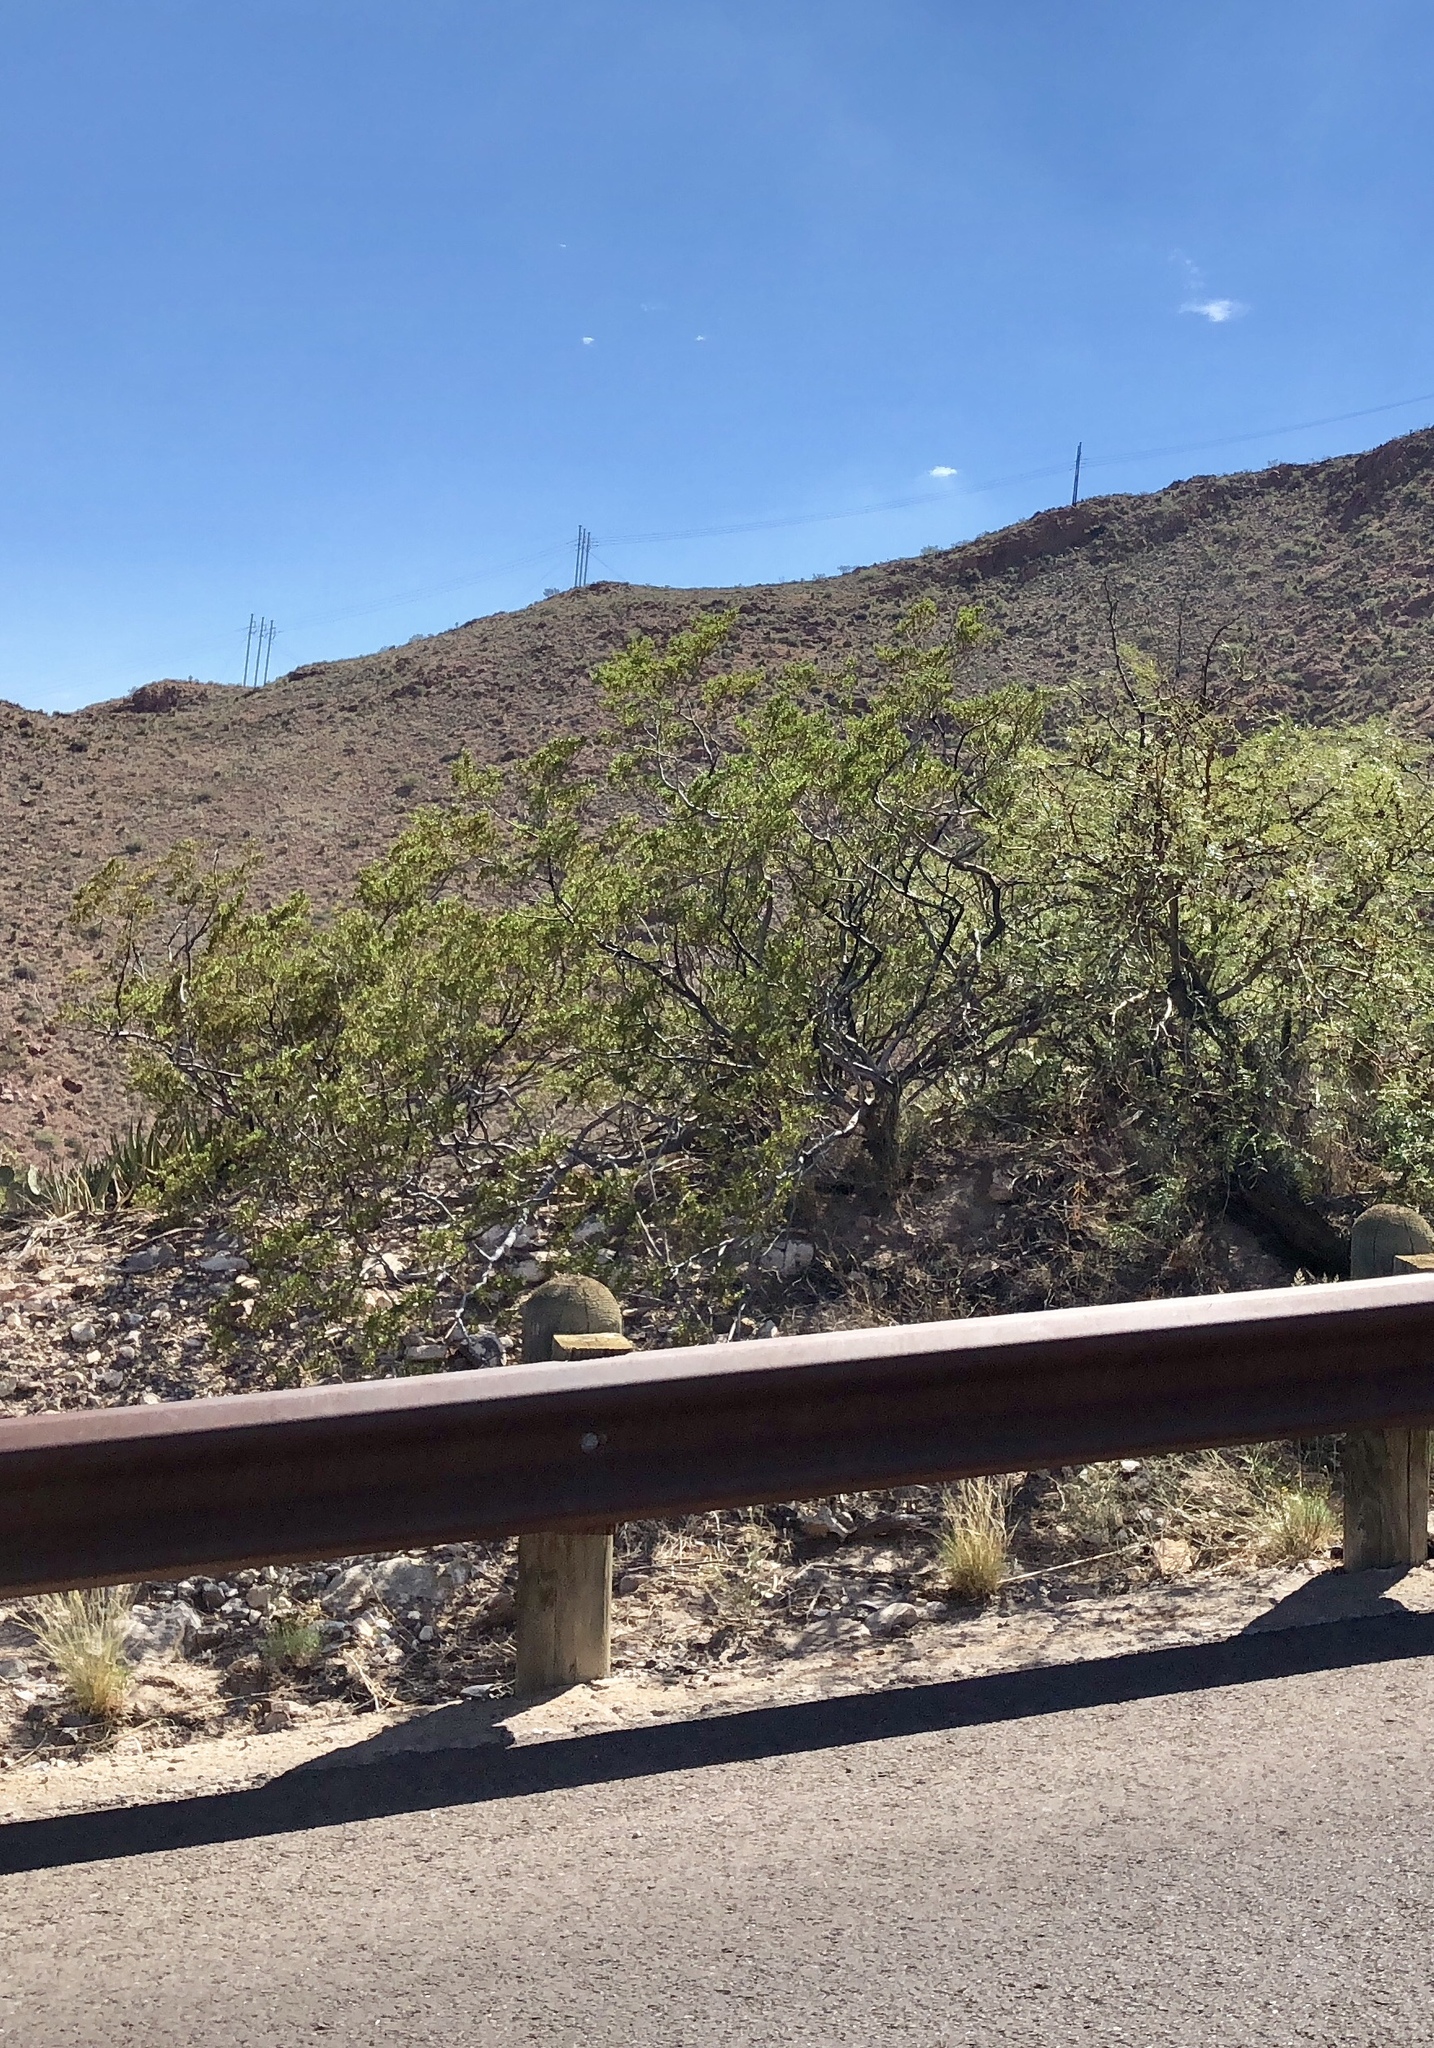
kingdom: Plantae
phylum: Tracheophyta
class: Magnoliopsida
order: Zygophyllales
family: Zygophyllaceae
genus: Larrea
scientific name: Larrea tridentata
